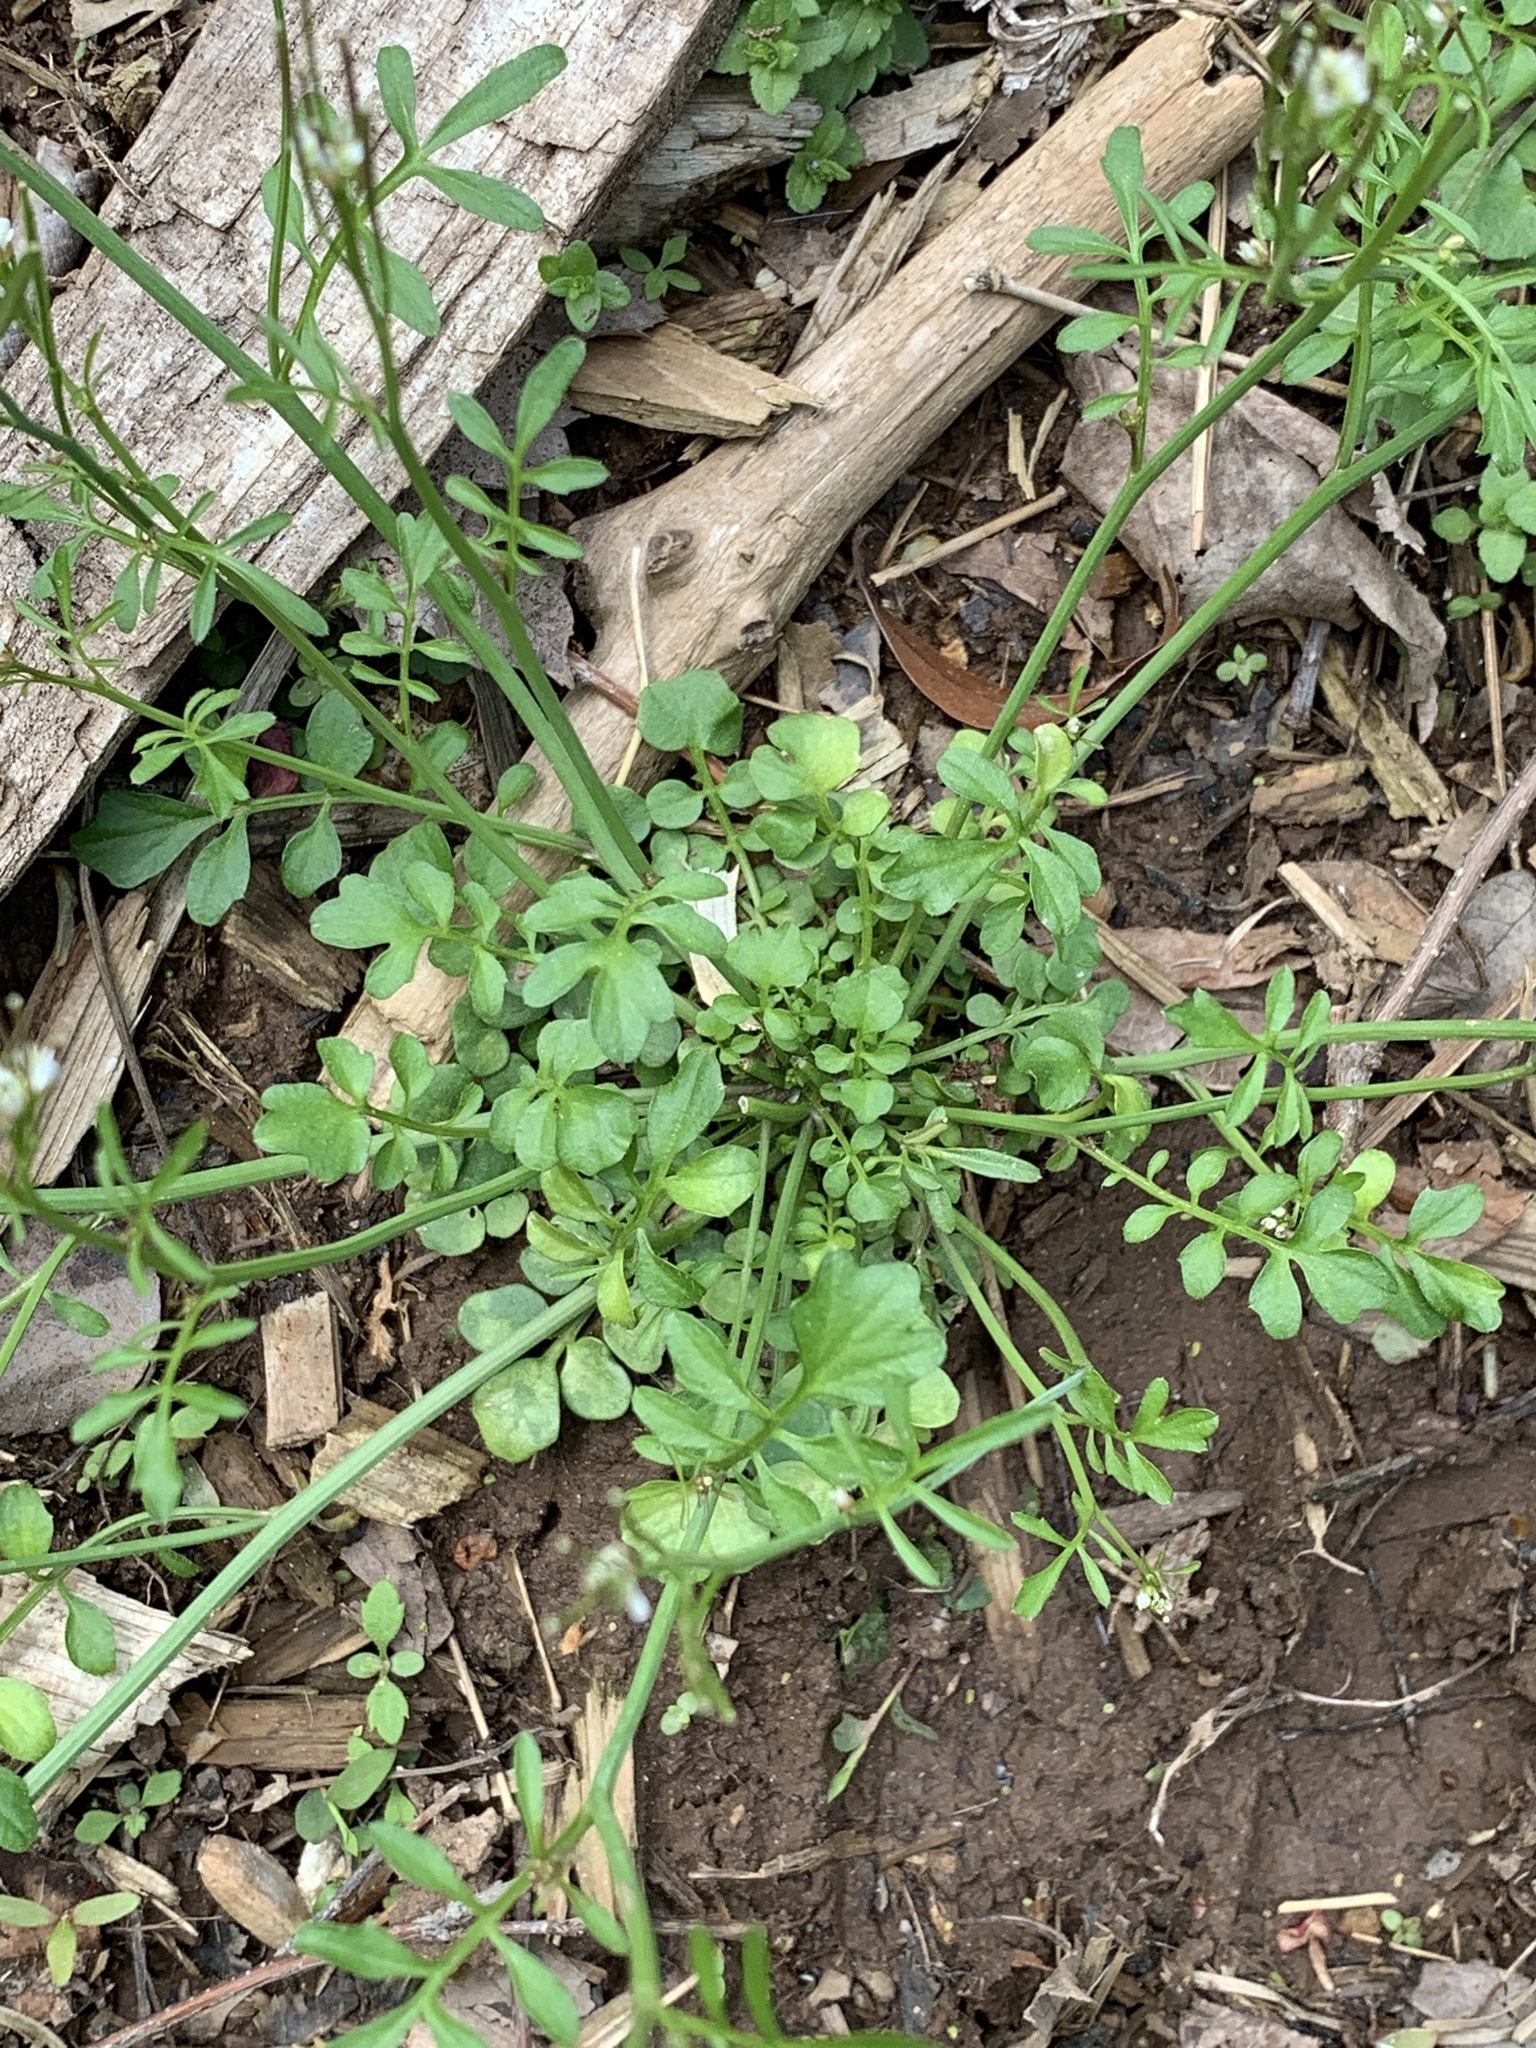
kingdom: Plantae
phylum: Tracheophyta
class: Magnoliopsida
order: Brassicales
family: Brassicaceae
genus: Cardamine
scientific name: Cardamine hirsuta
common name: Hairy bittercress
